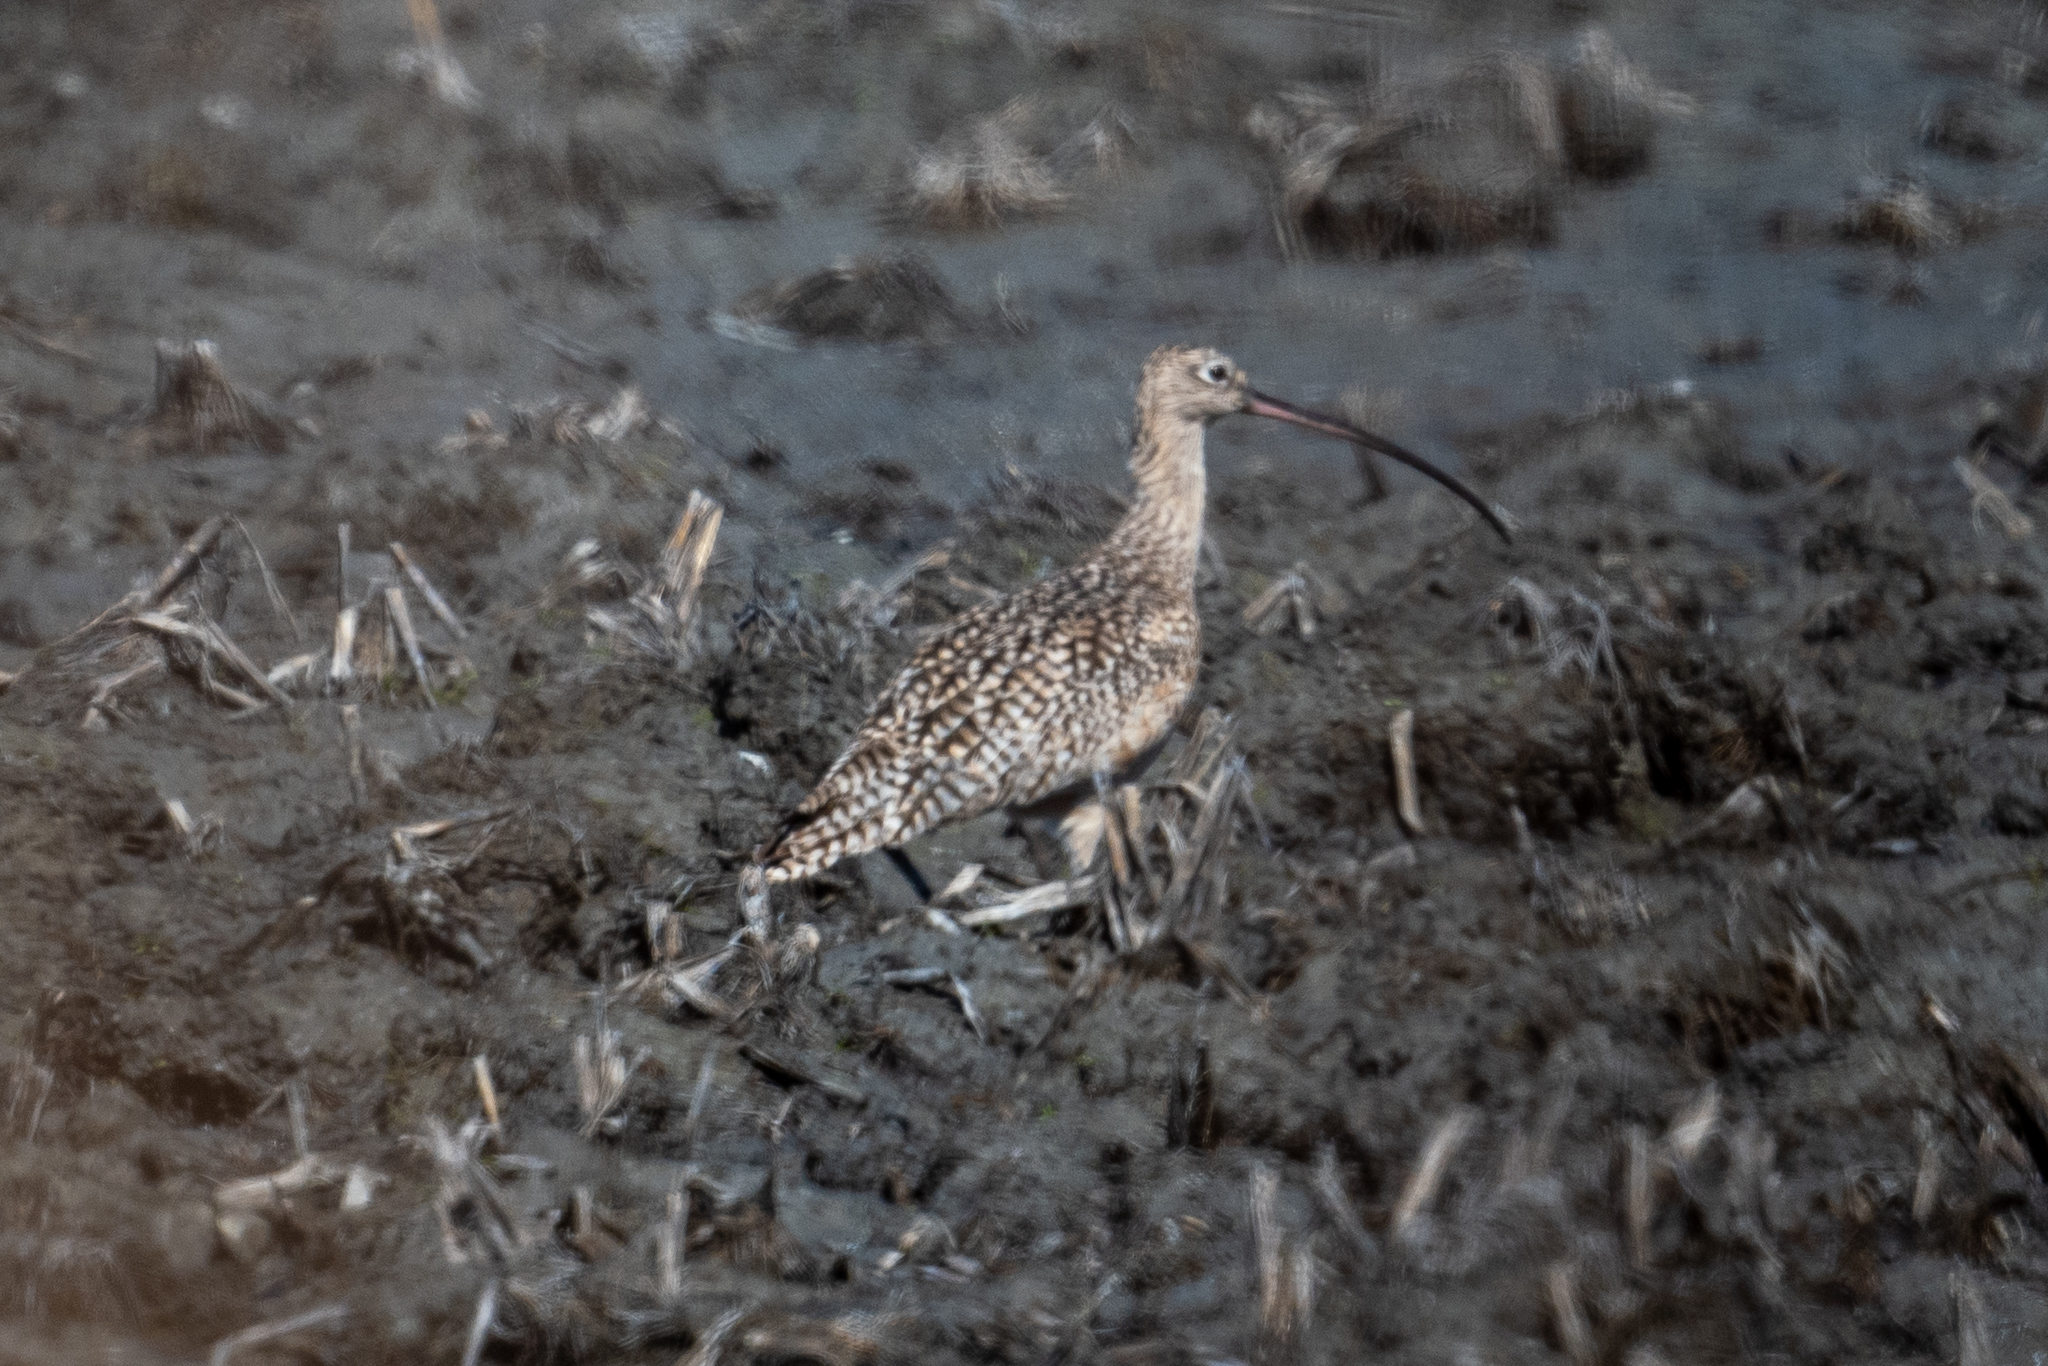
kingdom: Animalia
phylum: Chordata
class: Aves
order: Charadriiformes
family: Scolopacidae
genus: Numenius
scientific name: Numenius americanus
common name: Long-billed curlew
